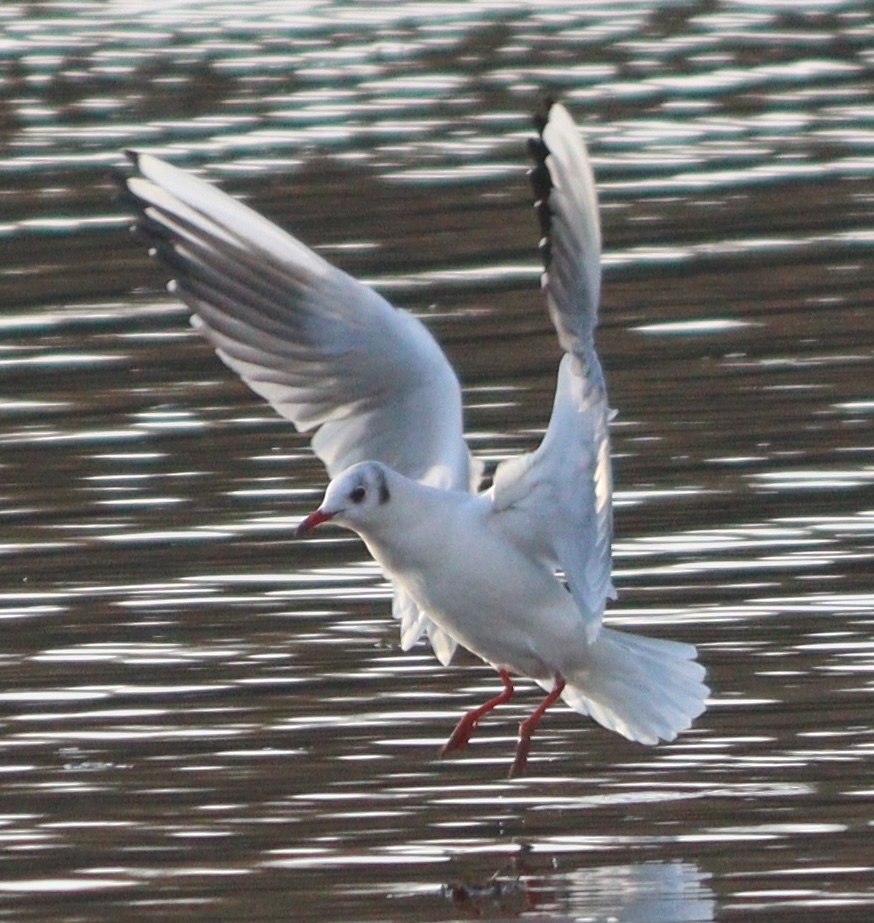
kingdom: Animalia
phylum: Chordata
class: Aves
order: Charadriiformes
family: Laridae
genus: Chroicocephalus
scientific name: Chroicocephalus ridibundus
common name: Black-headed gull
